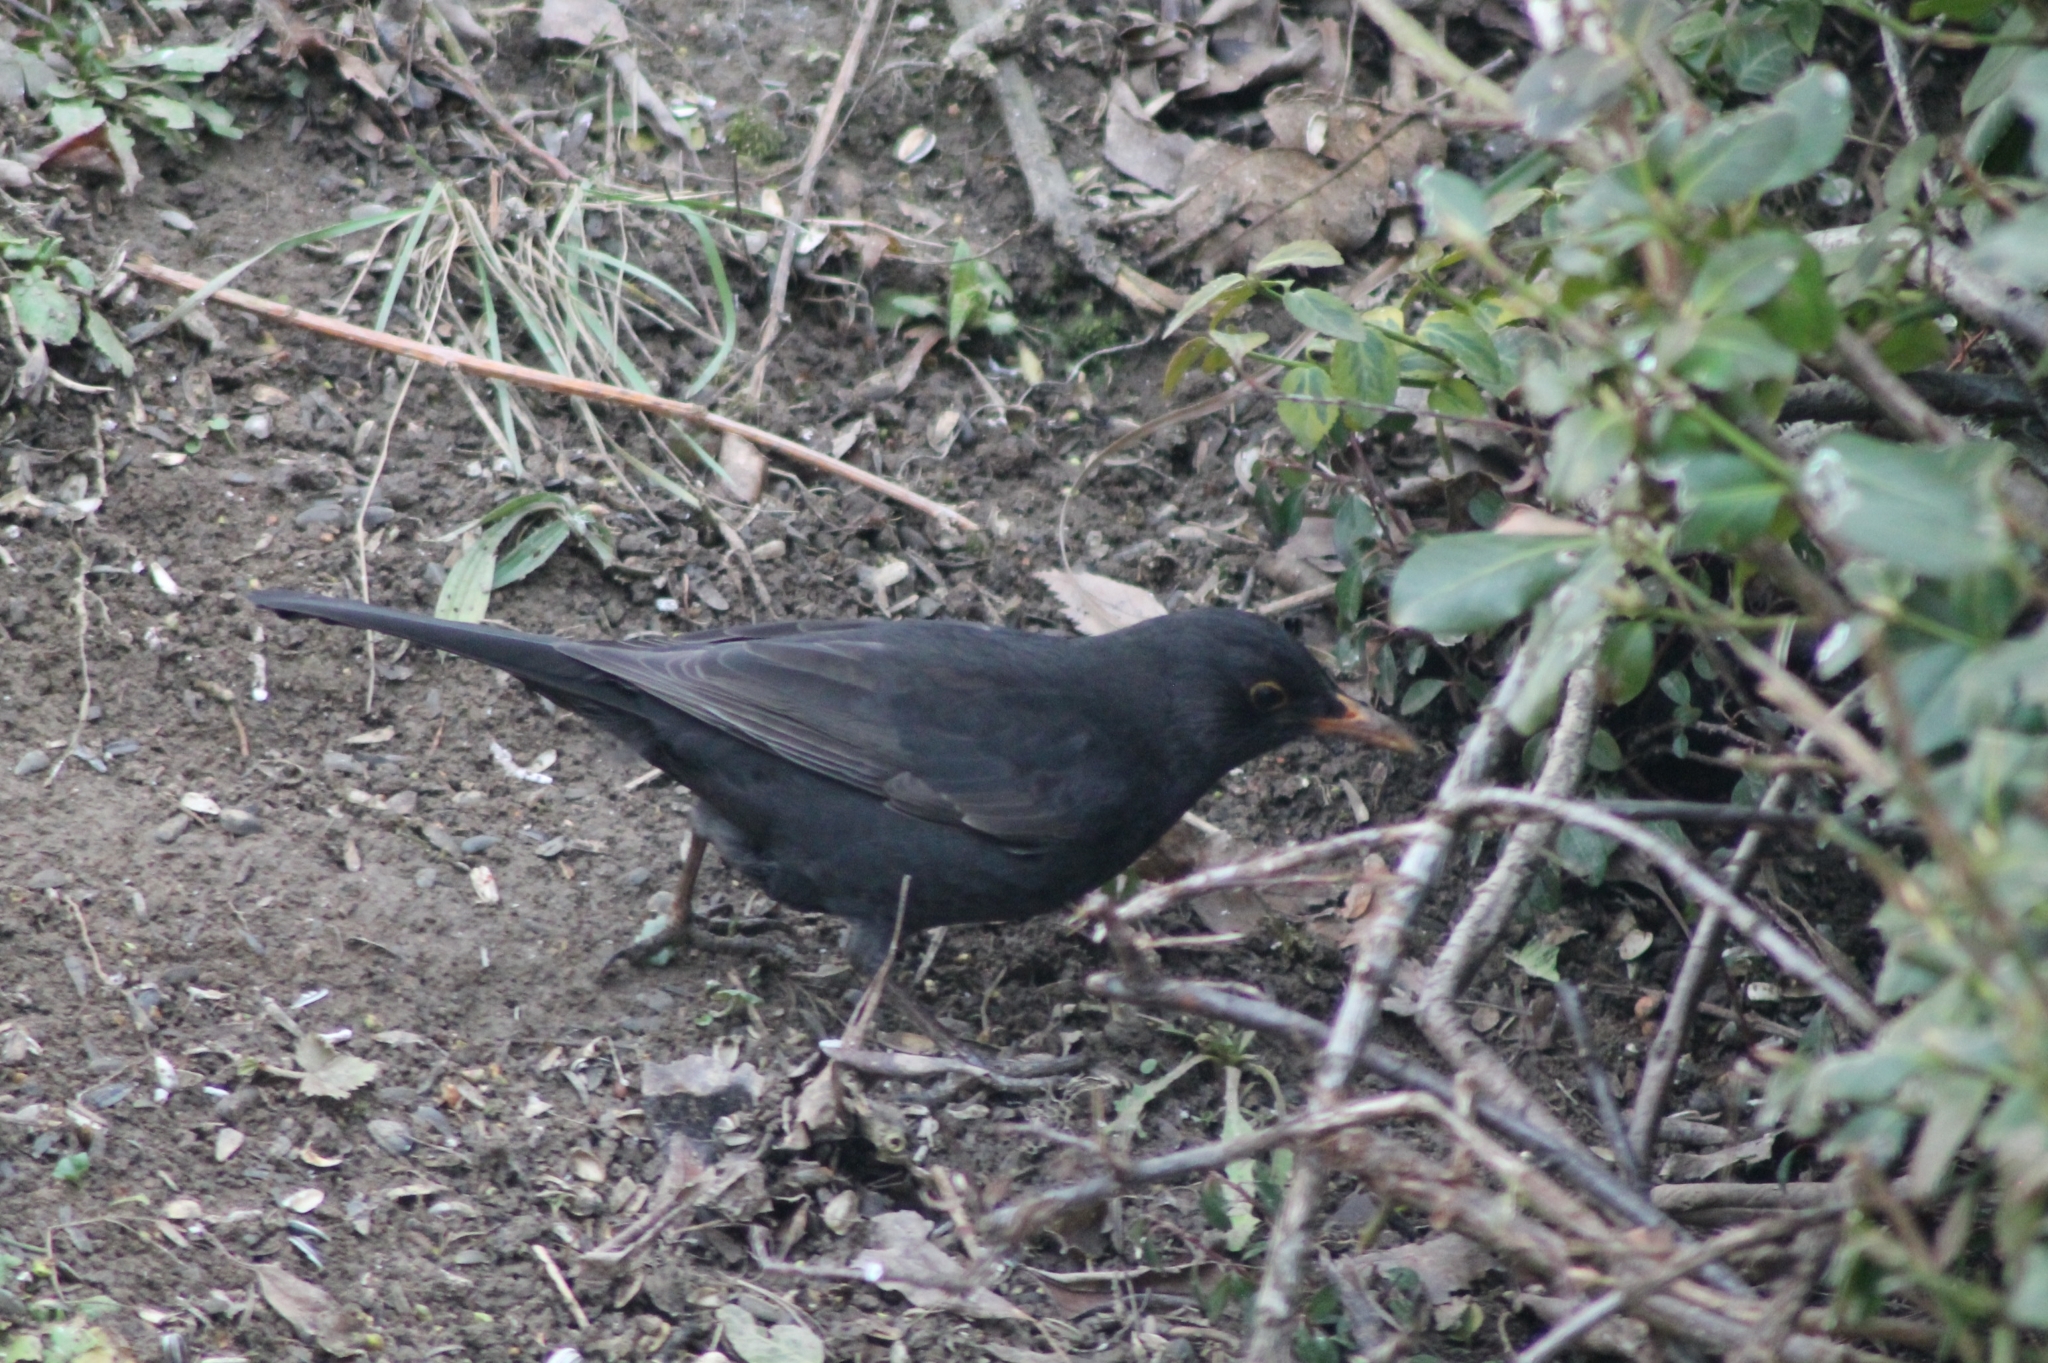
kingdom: Animalia
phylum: Chordata
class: Aves
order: Passeriformes
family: Turdidae
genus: Turdus
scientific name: Turdus merula
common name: Common blackbird
